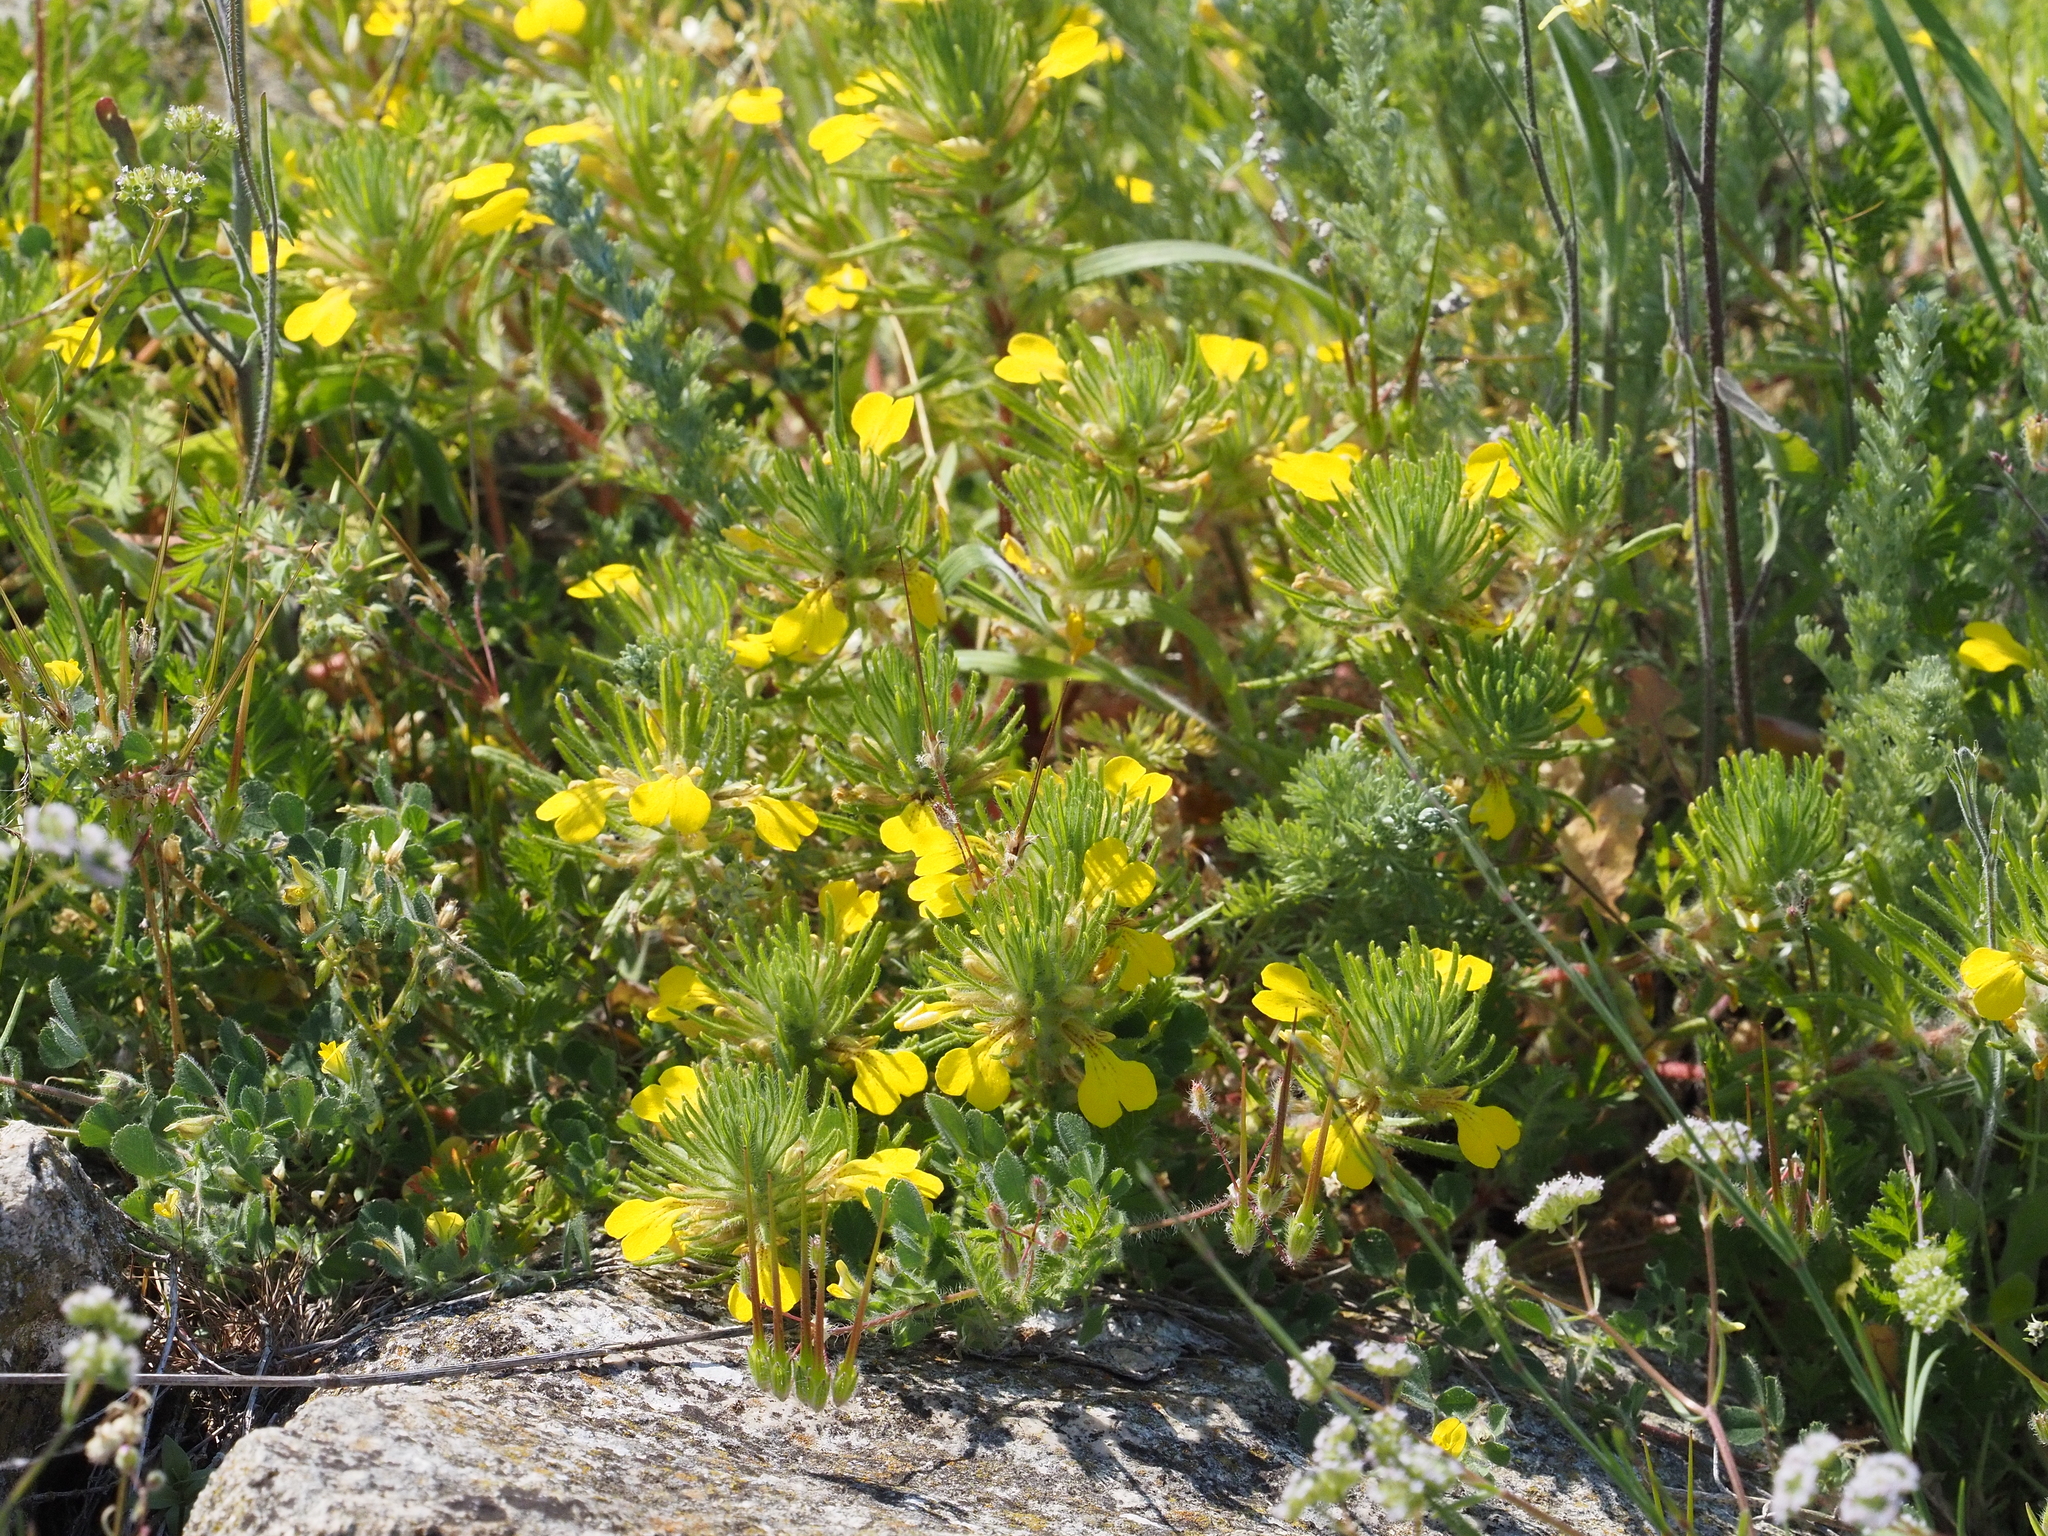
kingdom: Plantae
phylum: Tracheophyta
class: Magnoliopsida
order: Lamiales
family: Lamiaceae
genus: Ajuga
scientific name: Ajuga chamaepitys
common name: Ground-pine
